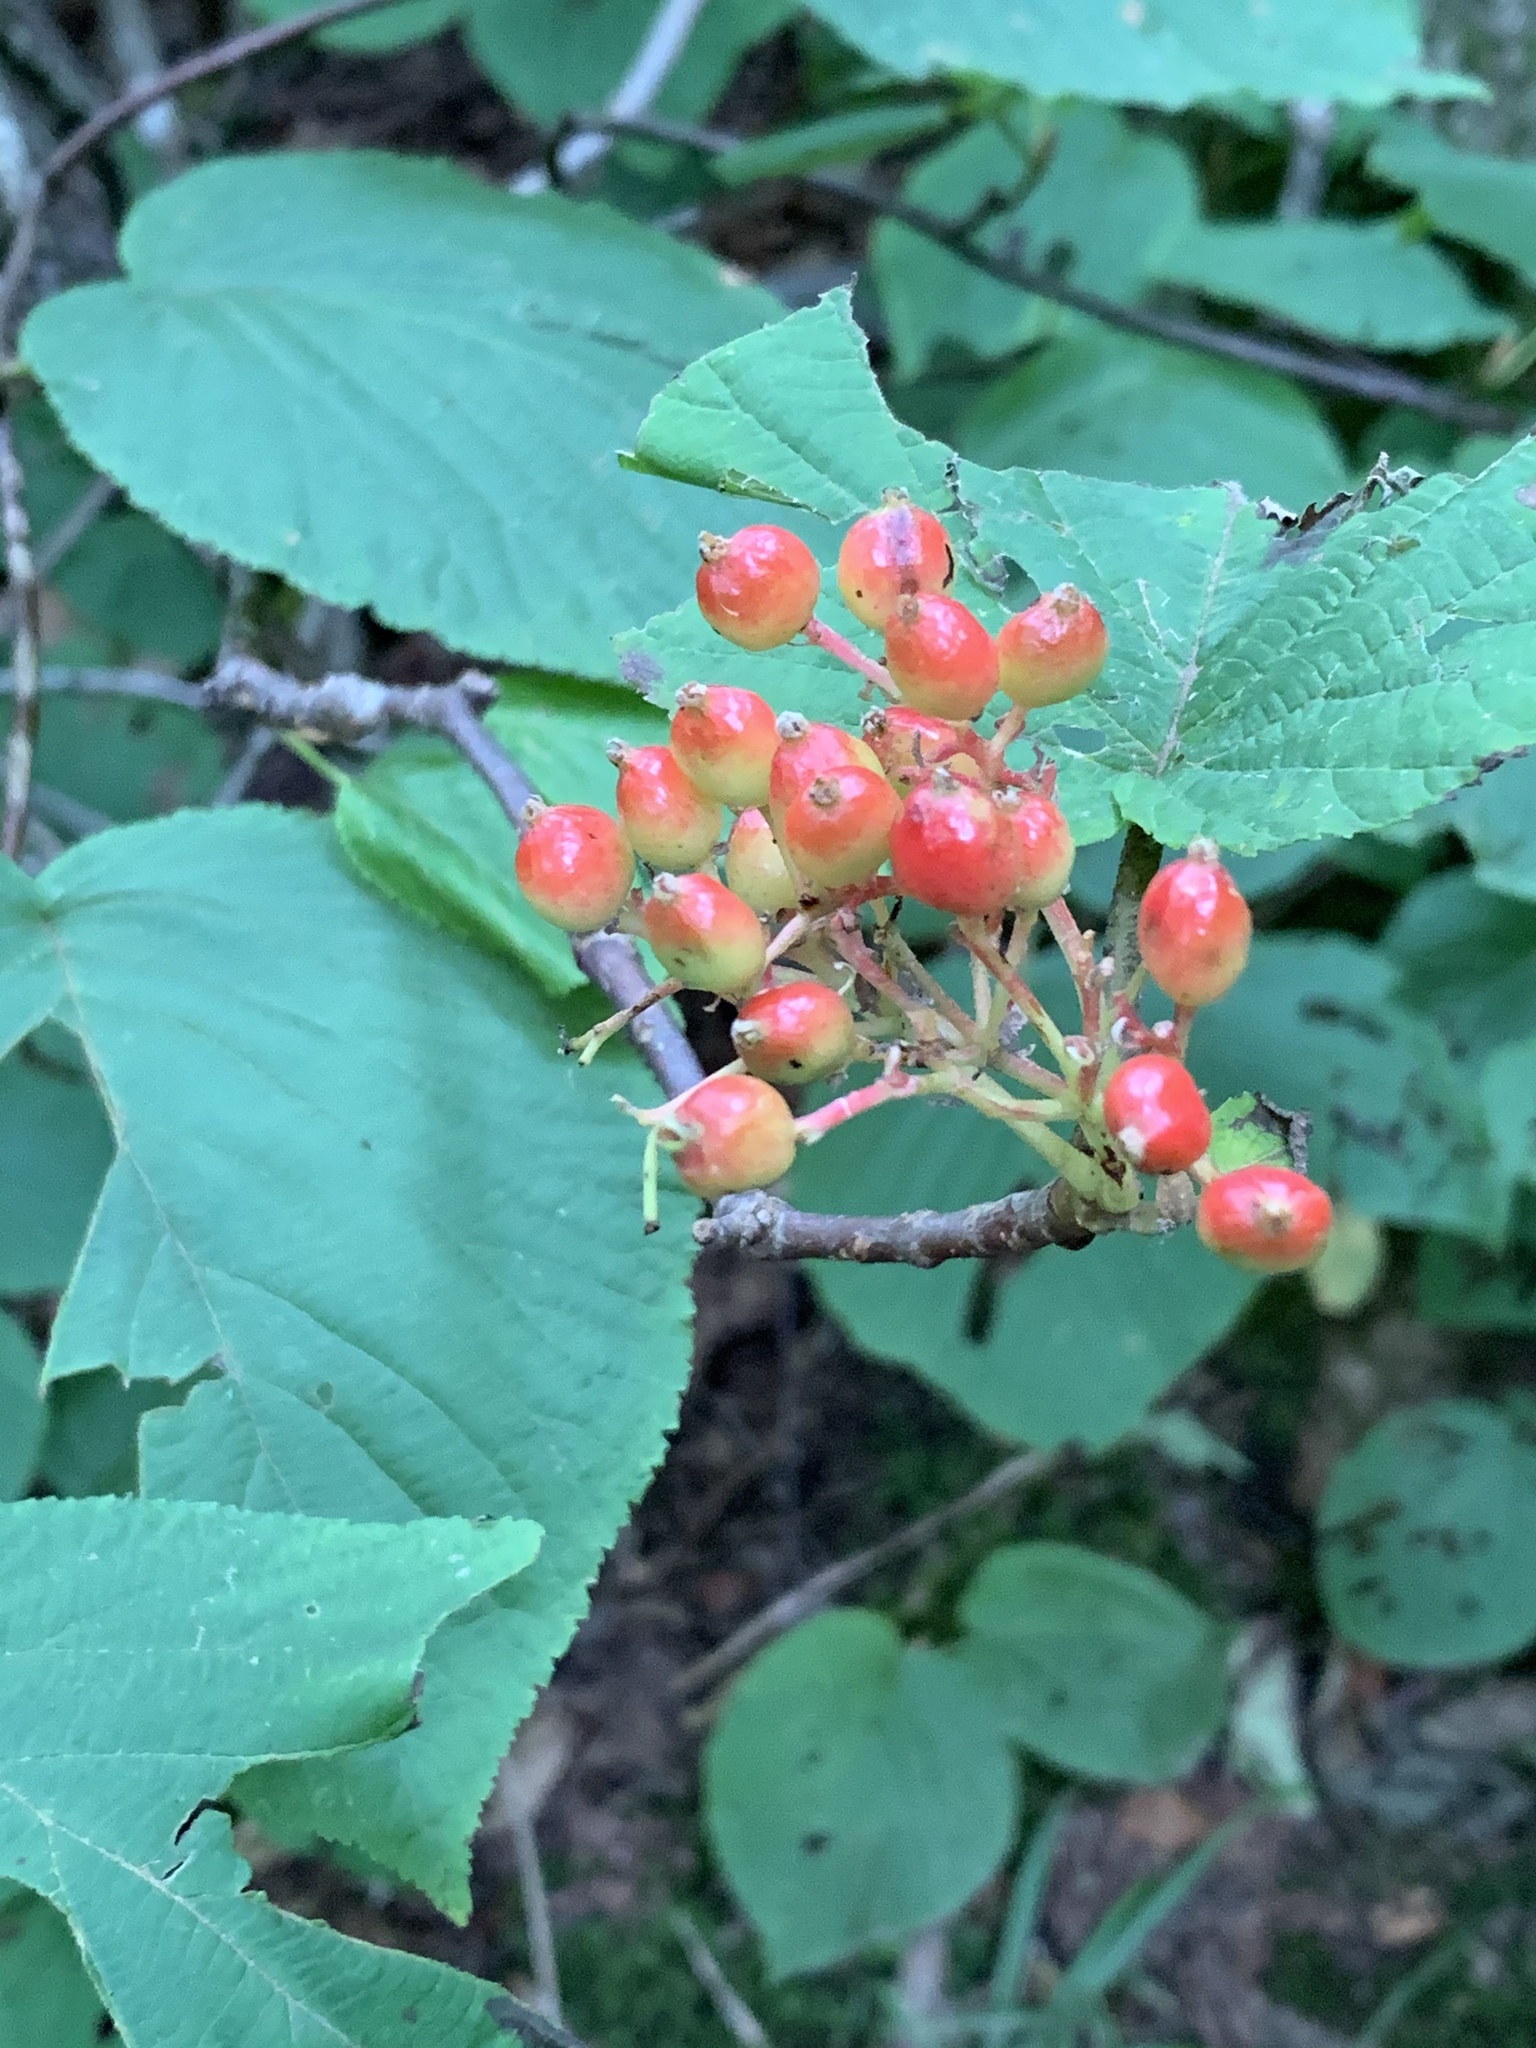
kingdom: Plantae
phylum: Tracheophyta
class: Magnoliopsida
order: Dipsacales
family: Viburnaceae
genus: Viburnum
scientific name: Viburnum lantanoides
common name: Hobblebush
